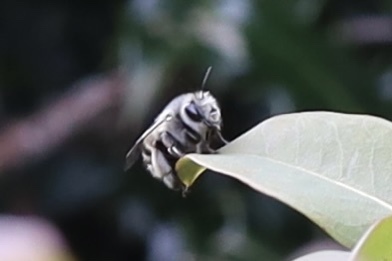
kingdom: Animalia
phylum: Arthropoda
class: Insecta
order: Hymenoptera
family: Apidae
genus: Anthophora
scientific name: Anthophora pacifica
